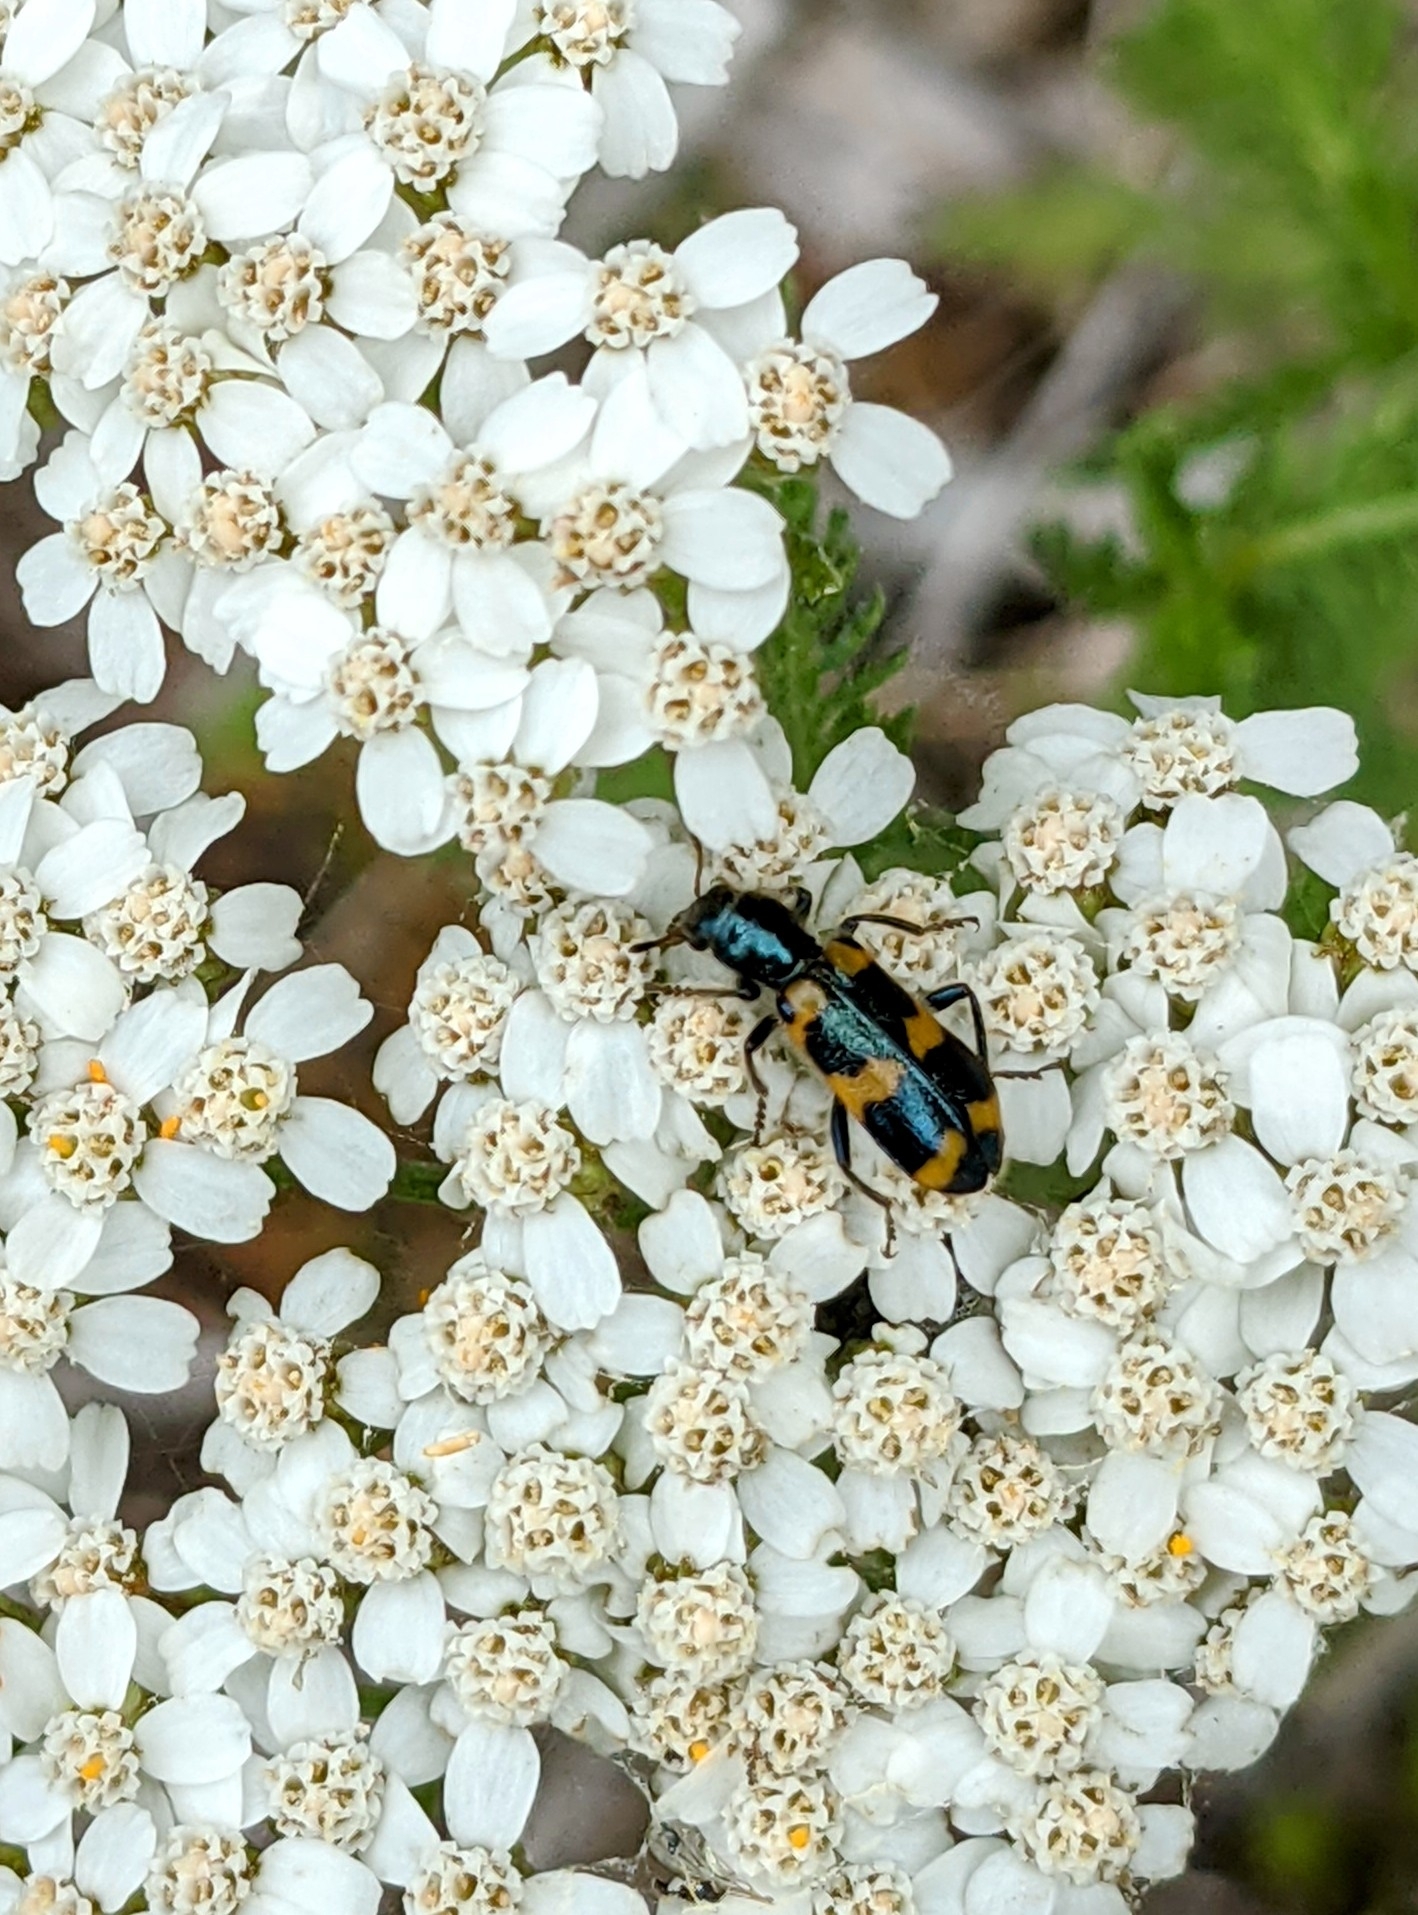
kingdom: Animalia
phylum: Arthropoda
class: Insecta
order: Coleoptera
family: Cleridae
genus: Trichodes
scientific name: Trichodes nutalli
